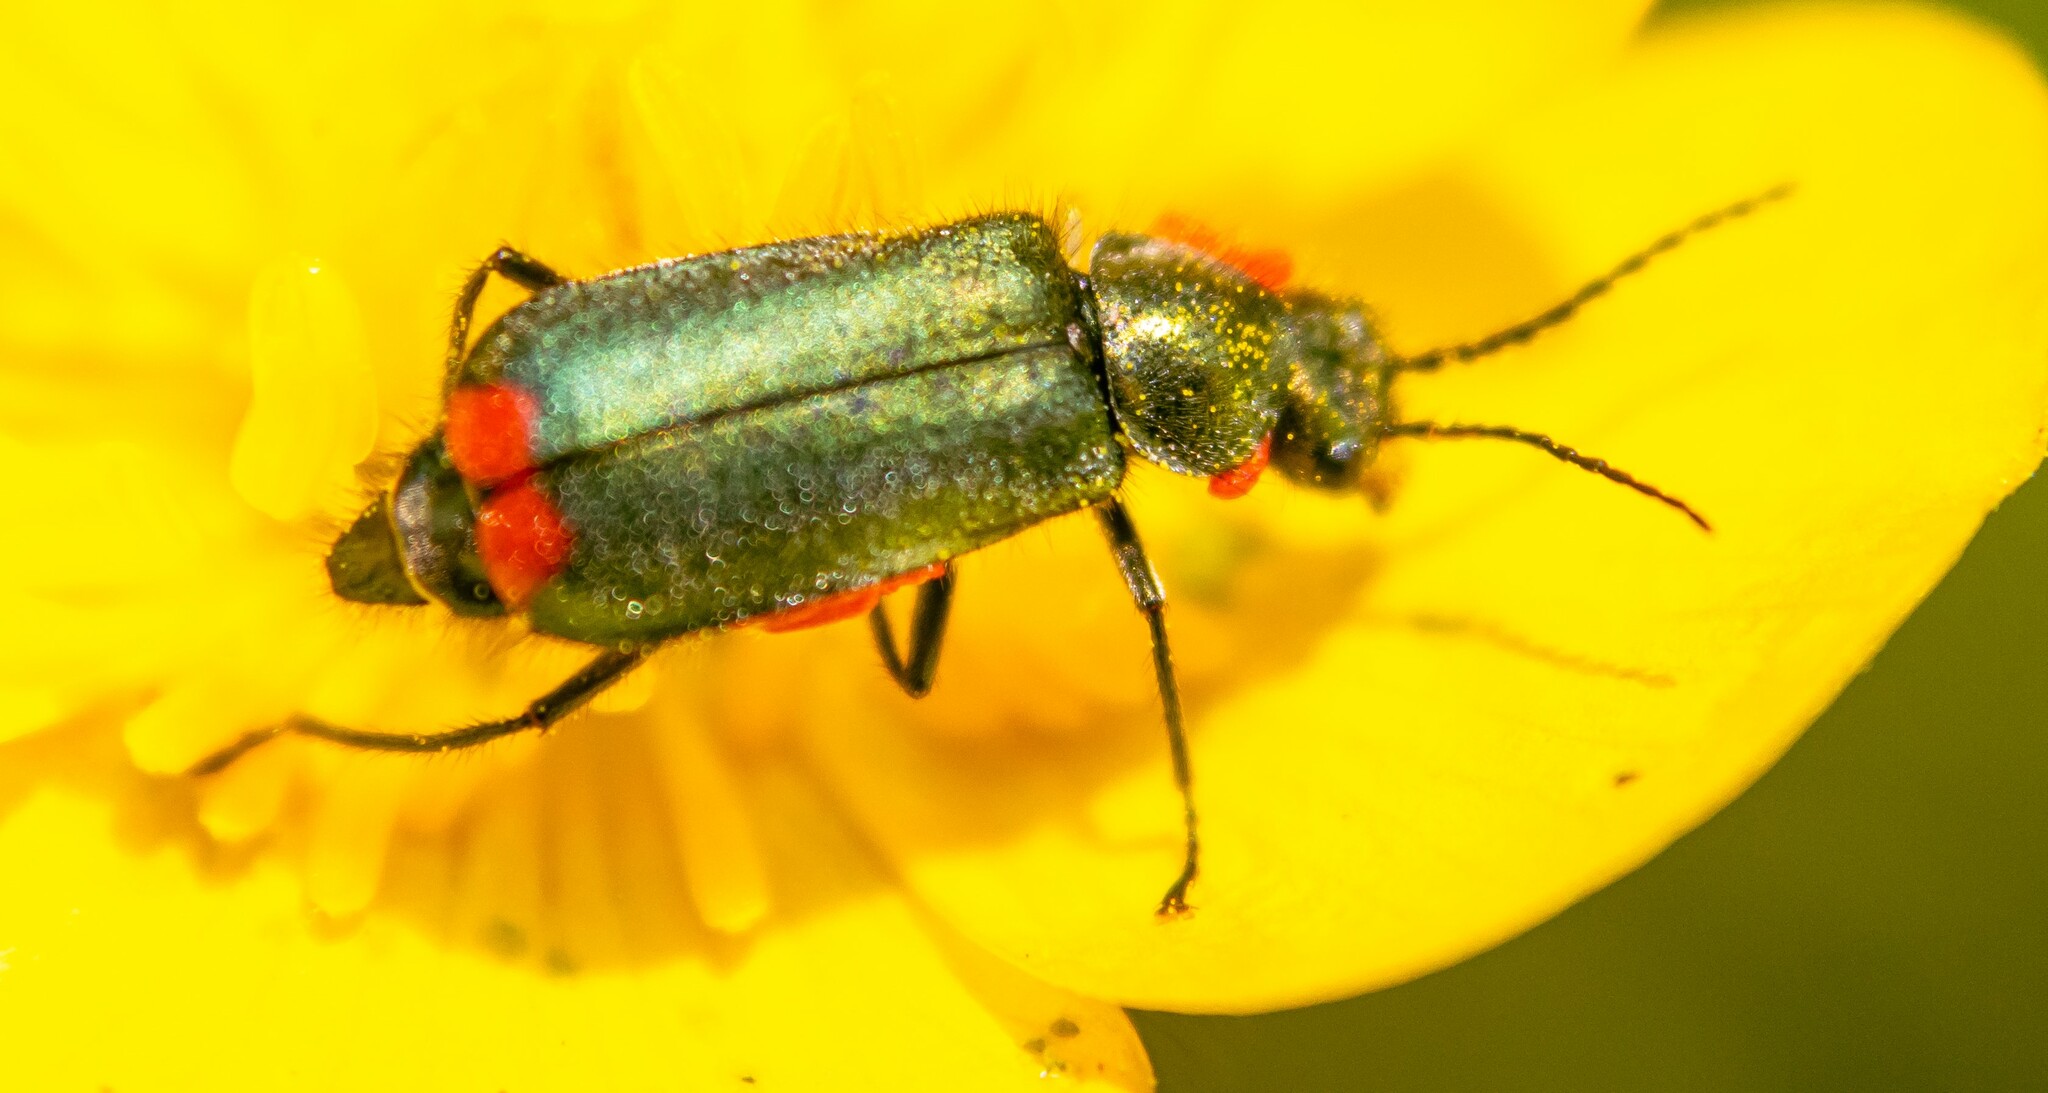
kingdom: Animalia
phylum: Arthropoda
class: Insecta
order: Coleoptera
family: Melyridae
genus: Malachius
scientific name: Malachius bipustulatus
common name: Malachite beetle
